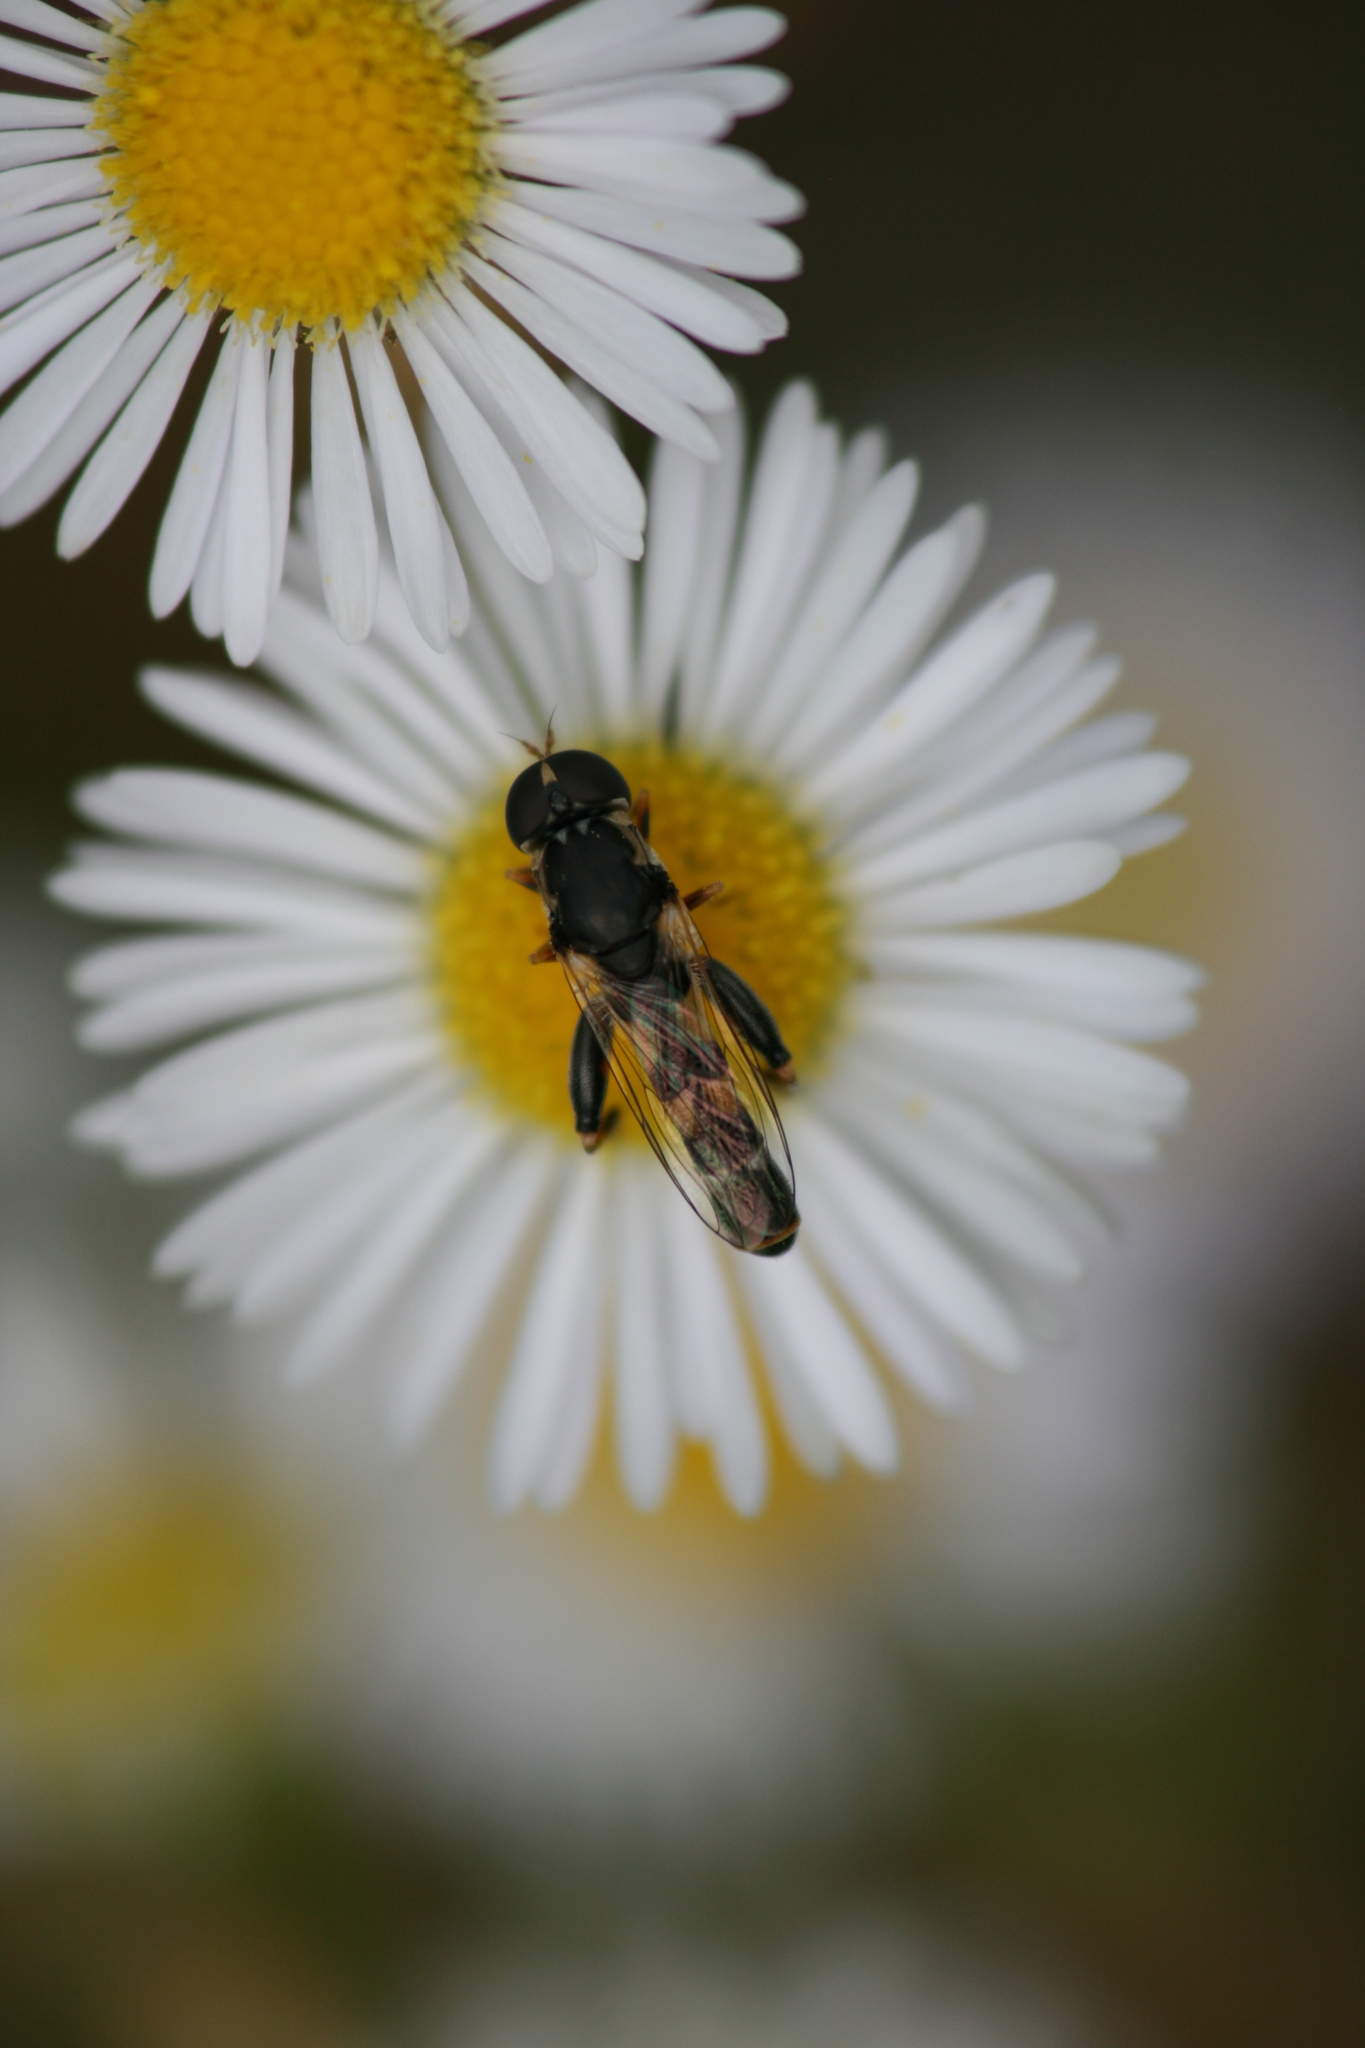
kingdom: Animalia
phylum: Arthropoda
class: Insecta
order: Diptera
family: Syrphidae
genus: Syritta
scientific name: Syritta pipiens
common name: Hover fly
